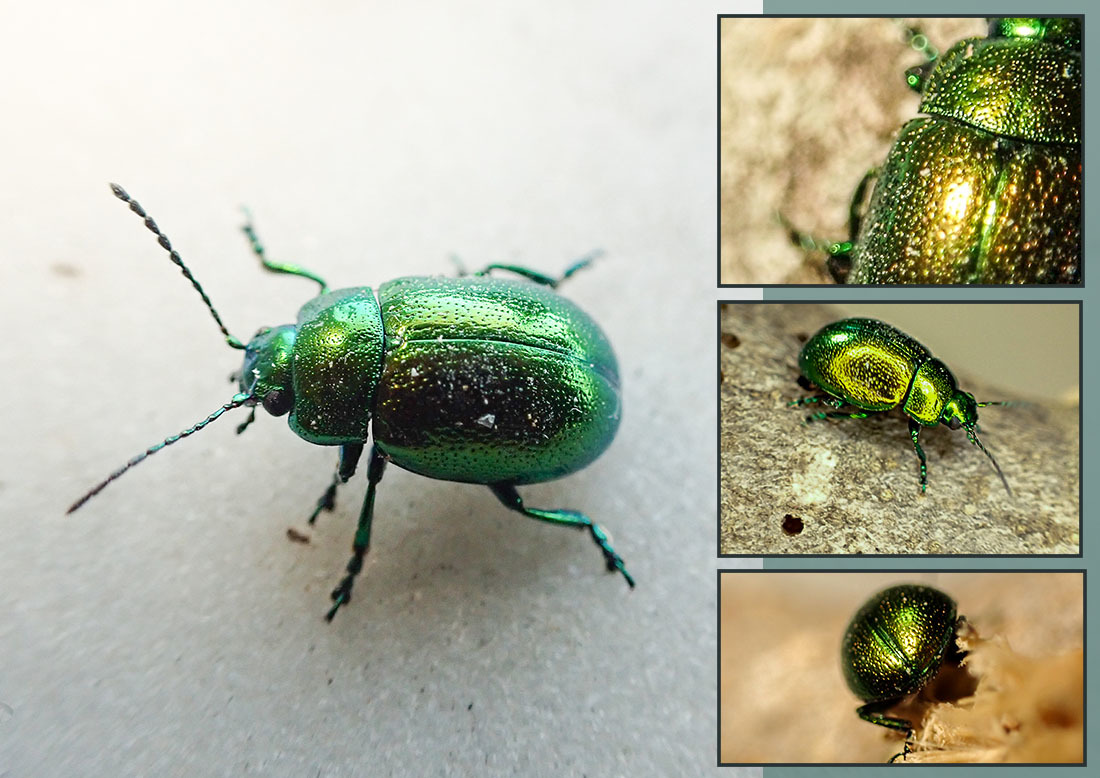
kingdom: Animalia
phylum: Arthropoda
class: Insecta
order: Coleoptera
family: Chrysomelidae
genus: Chrysolina
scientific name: Chrysolina herbacea
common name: Mint leaf beatle
